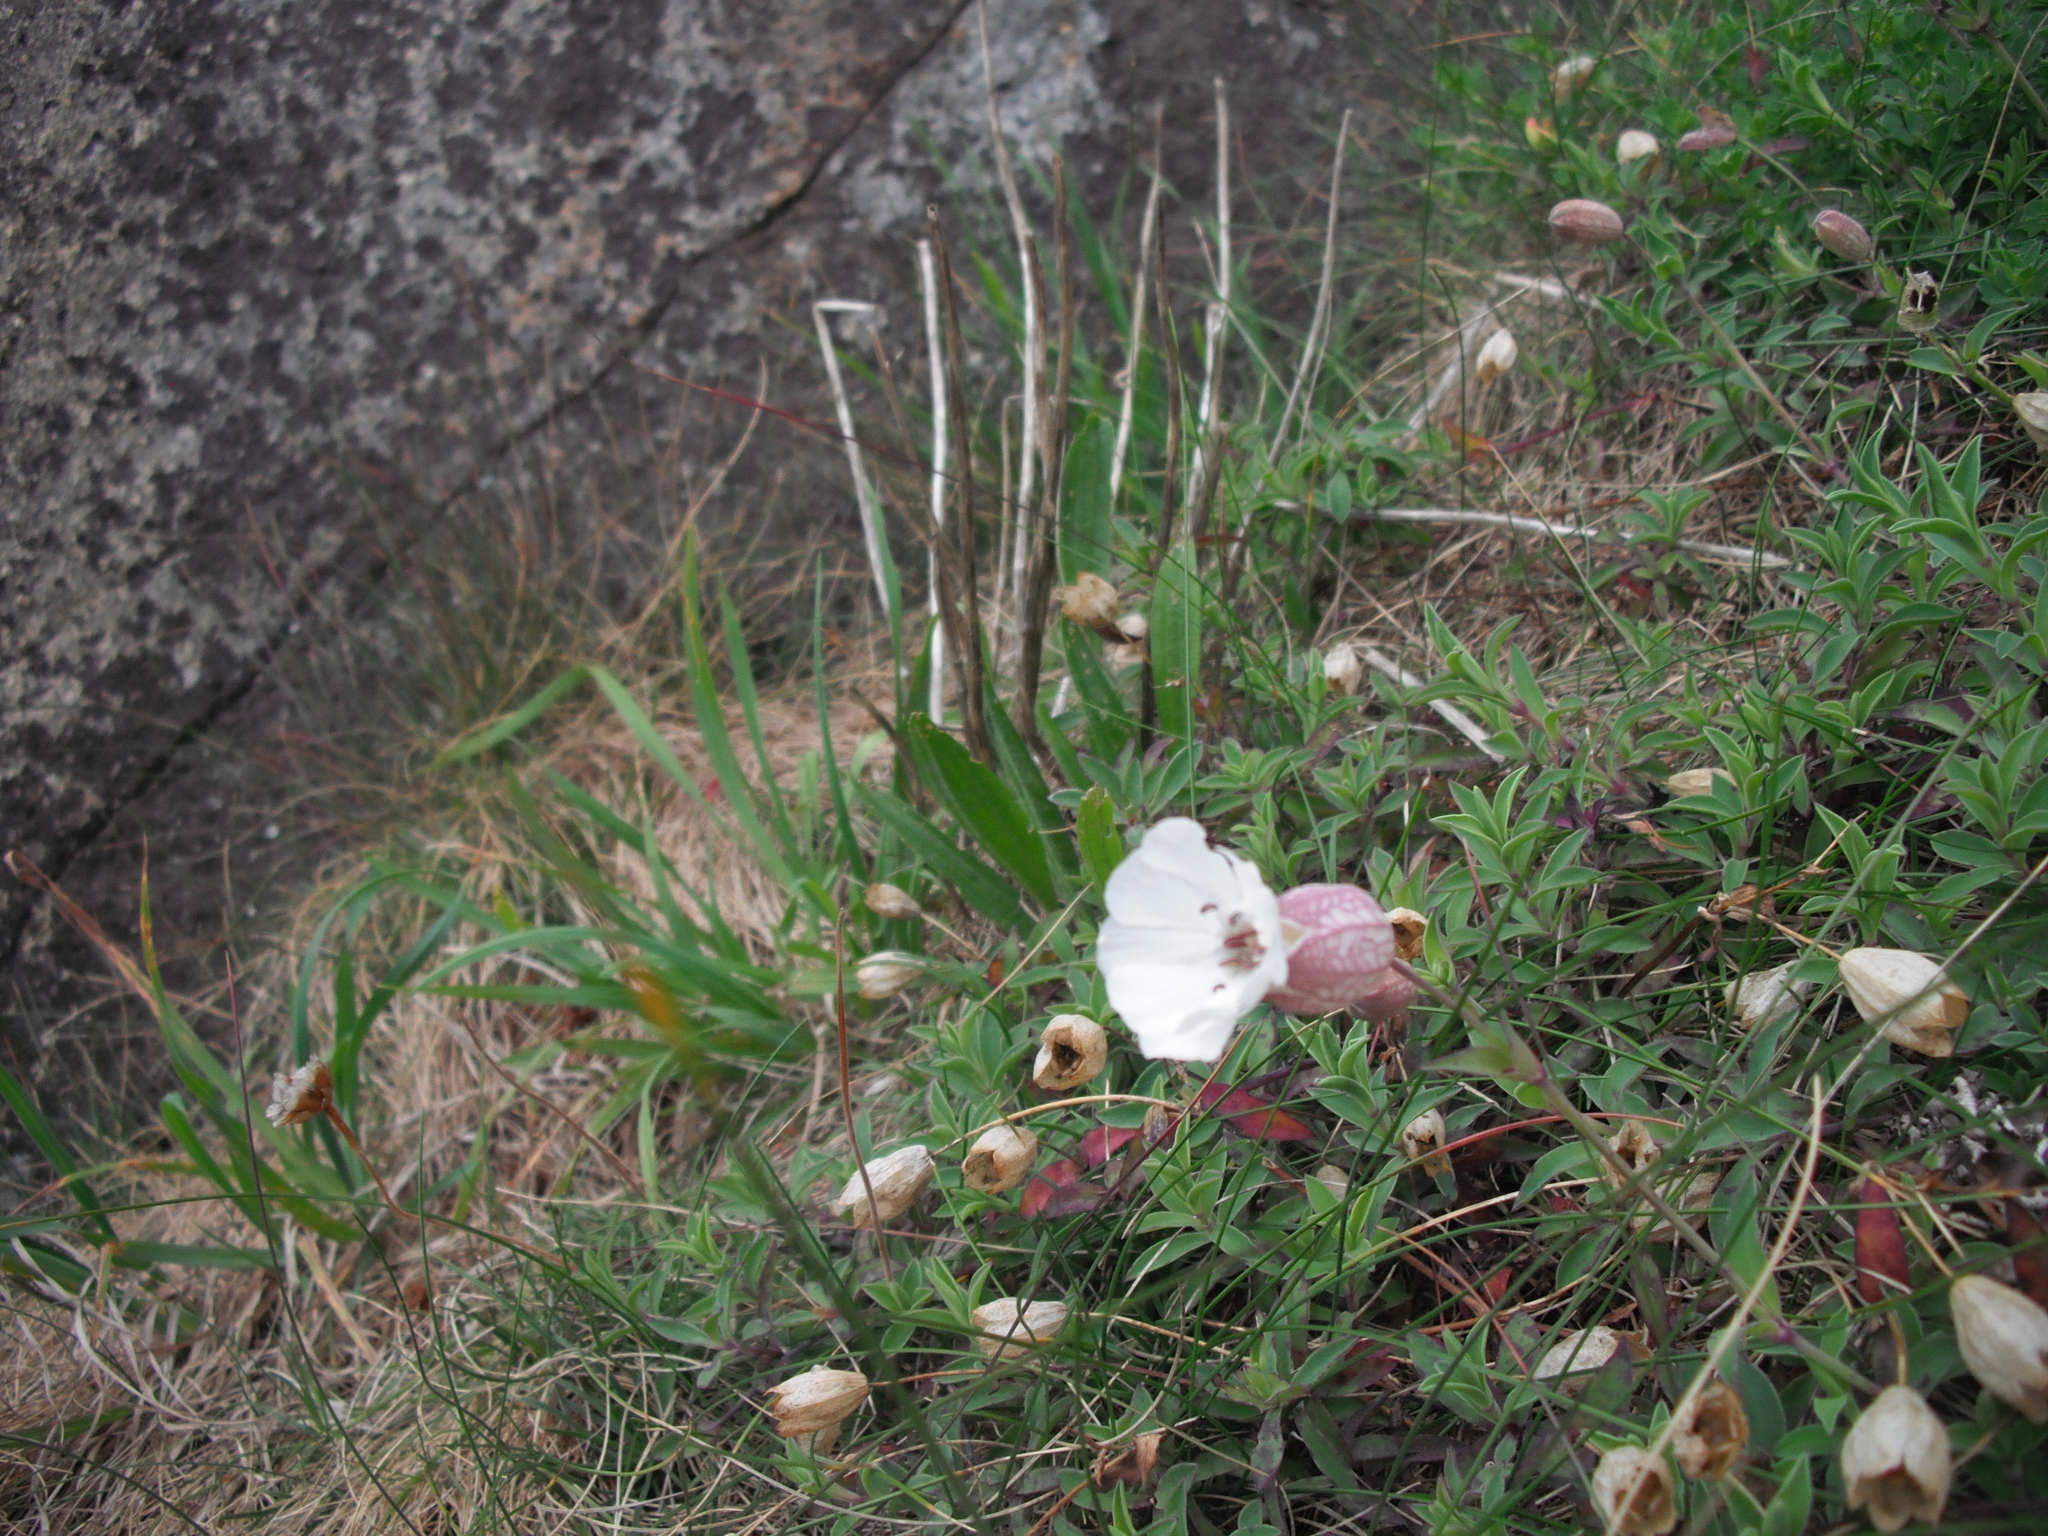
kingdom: Plantae
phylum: Tracheophyta
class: Magnoliopsida
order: Caryophyllales
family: Caryophyllaceae
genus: Silene
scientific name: Silene uniflora
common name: Sea campion
